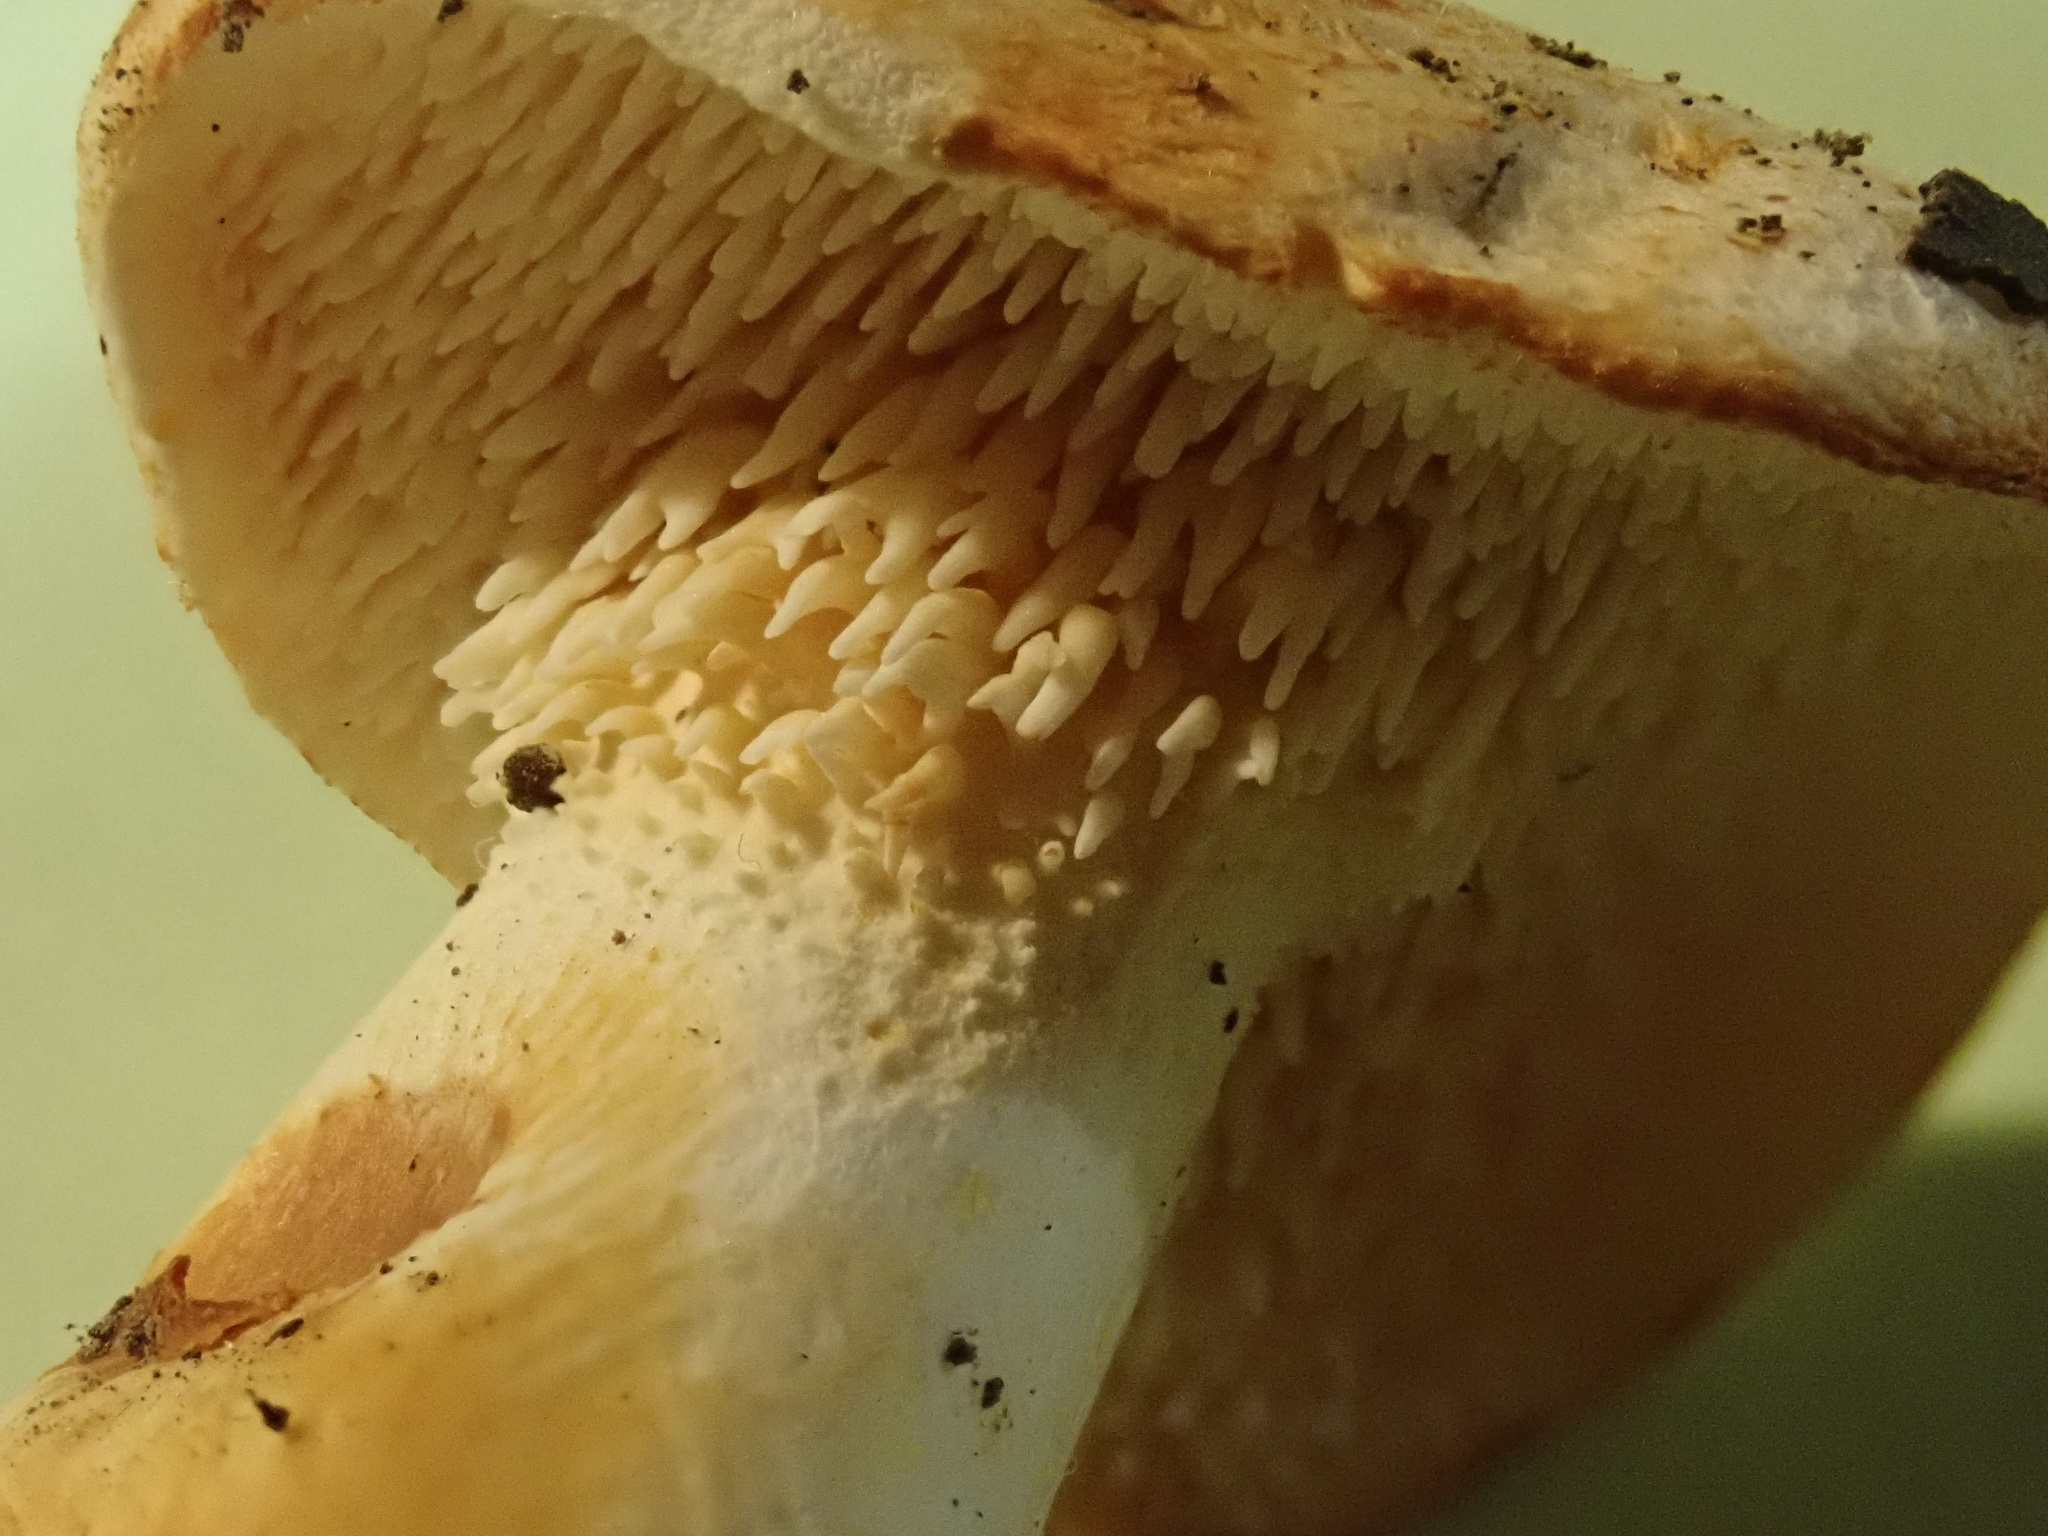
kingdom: Fungi
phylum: Basidiomycota
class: Agaricomycetes
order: Cantharellales
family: Hydnaceae
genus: Hydnum
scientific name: Hydnum repandum
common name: Wood hedgehog
